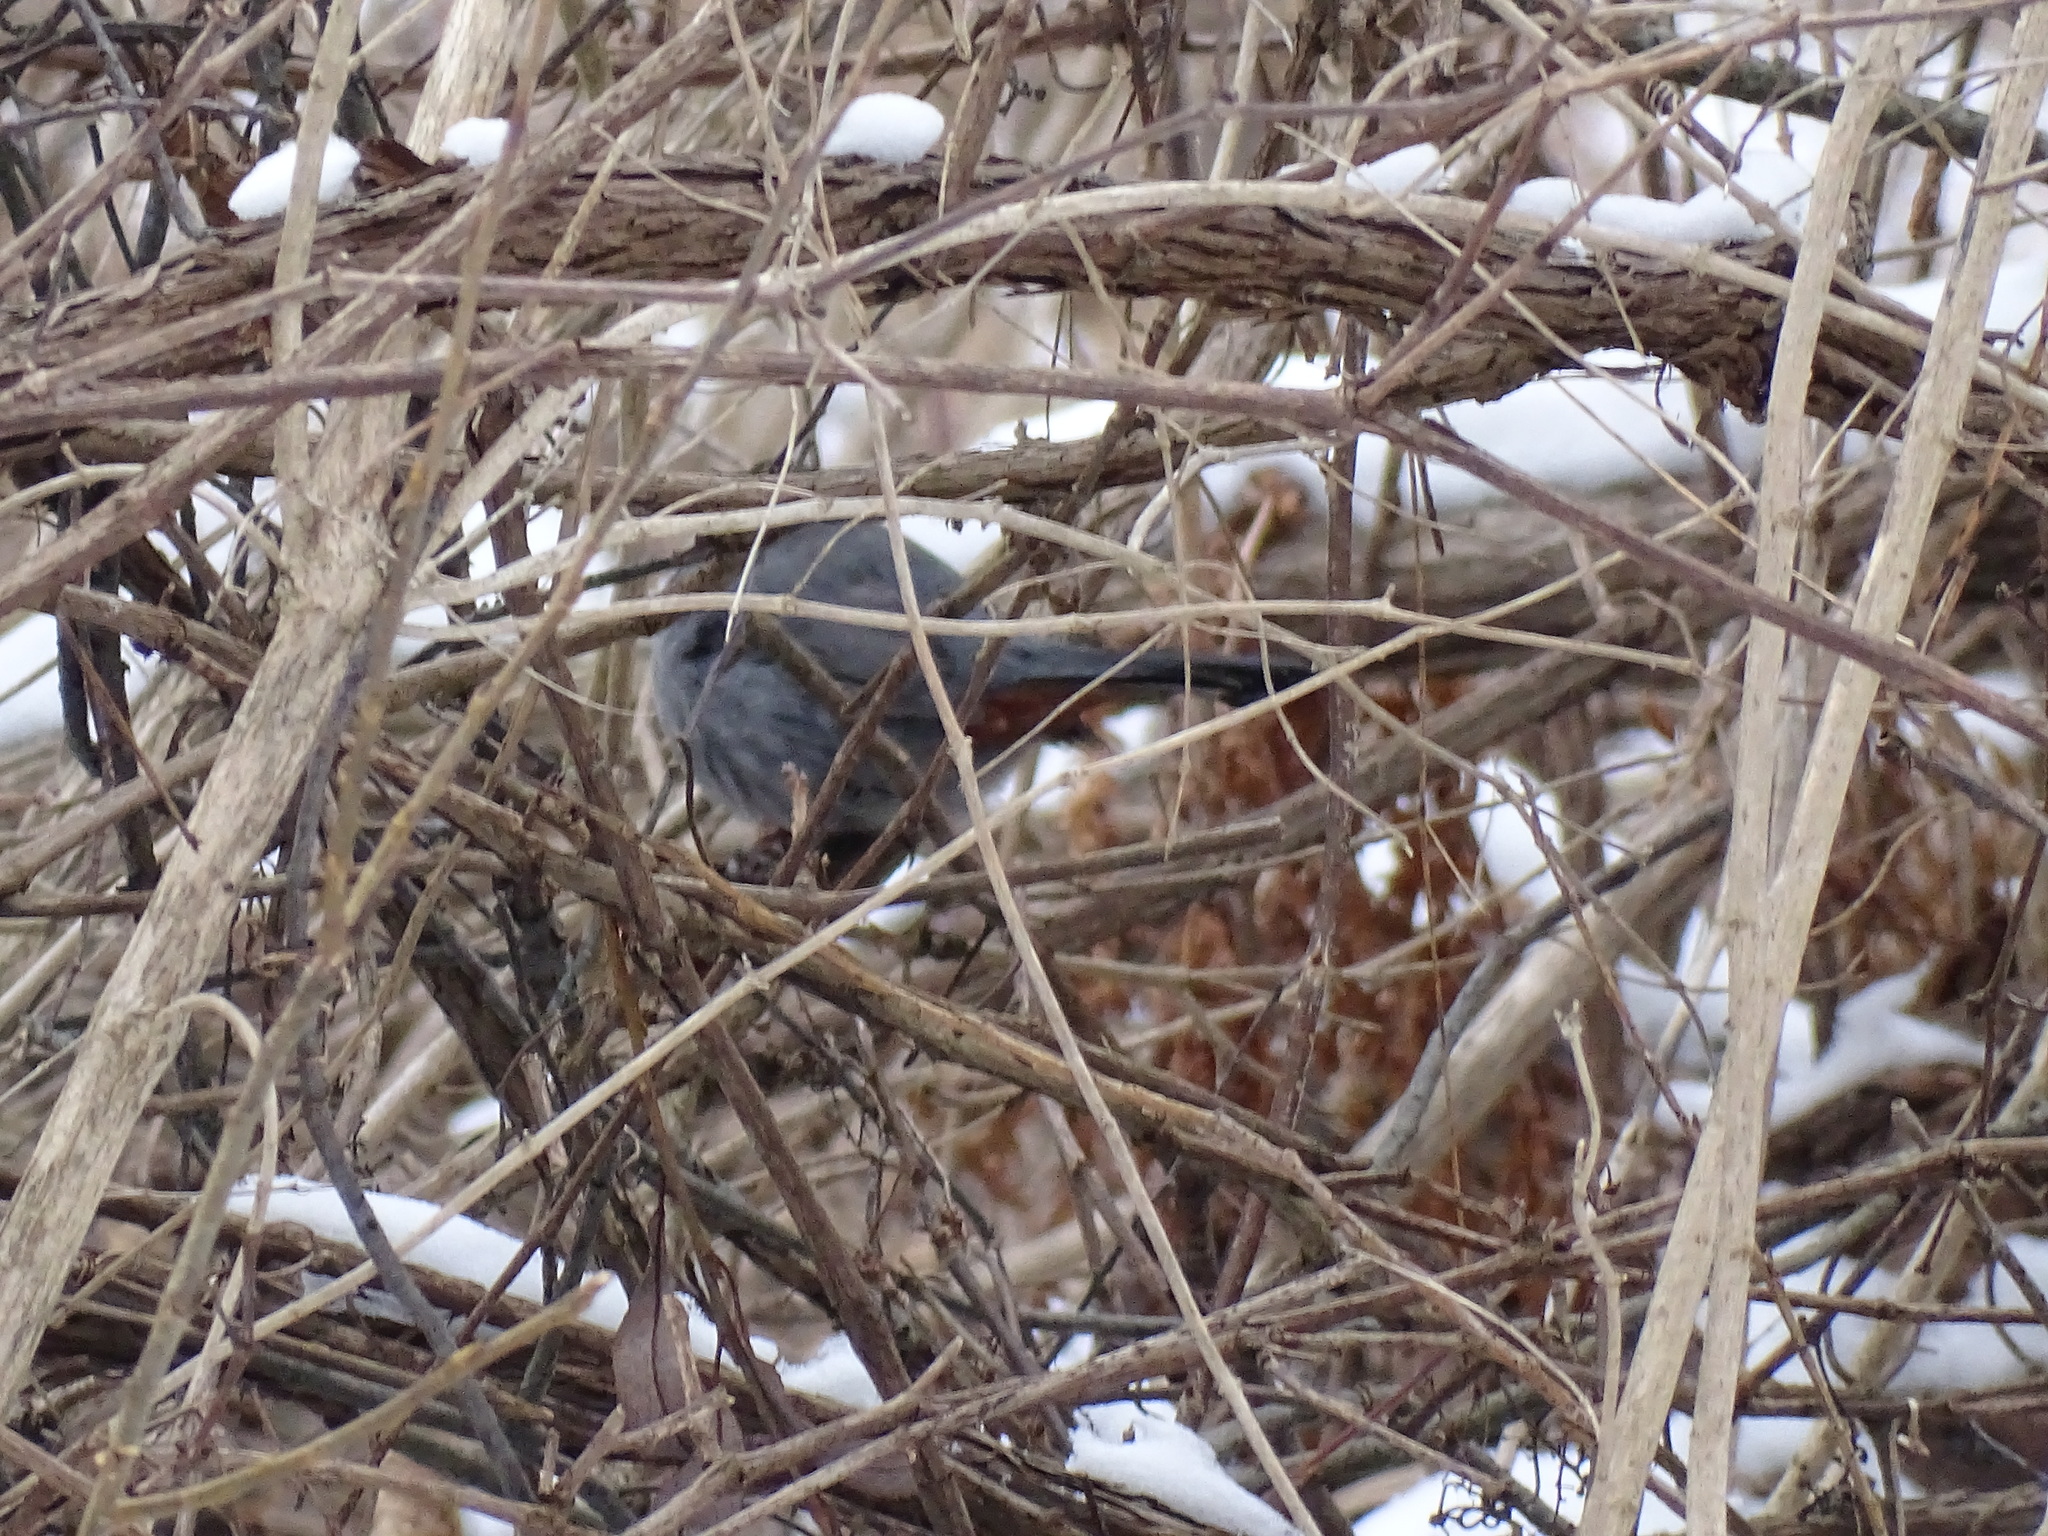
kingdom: Animalia
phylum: Chordata
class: Aves
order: Passeriformes
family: Mimidae
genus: Dumetella
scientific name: Dumetella carolinensis
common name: Gray catbird
